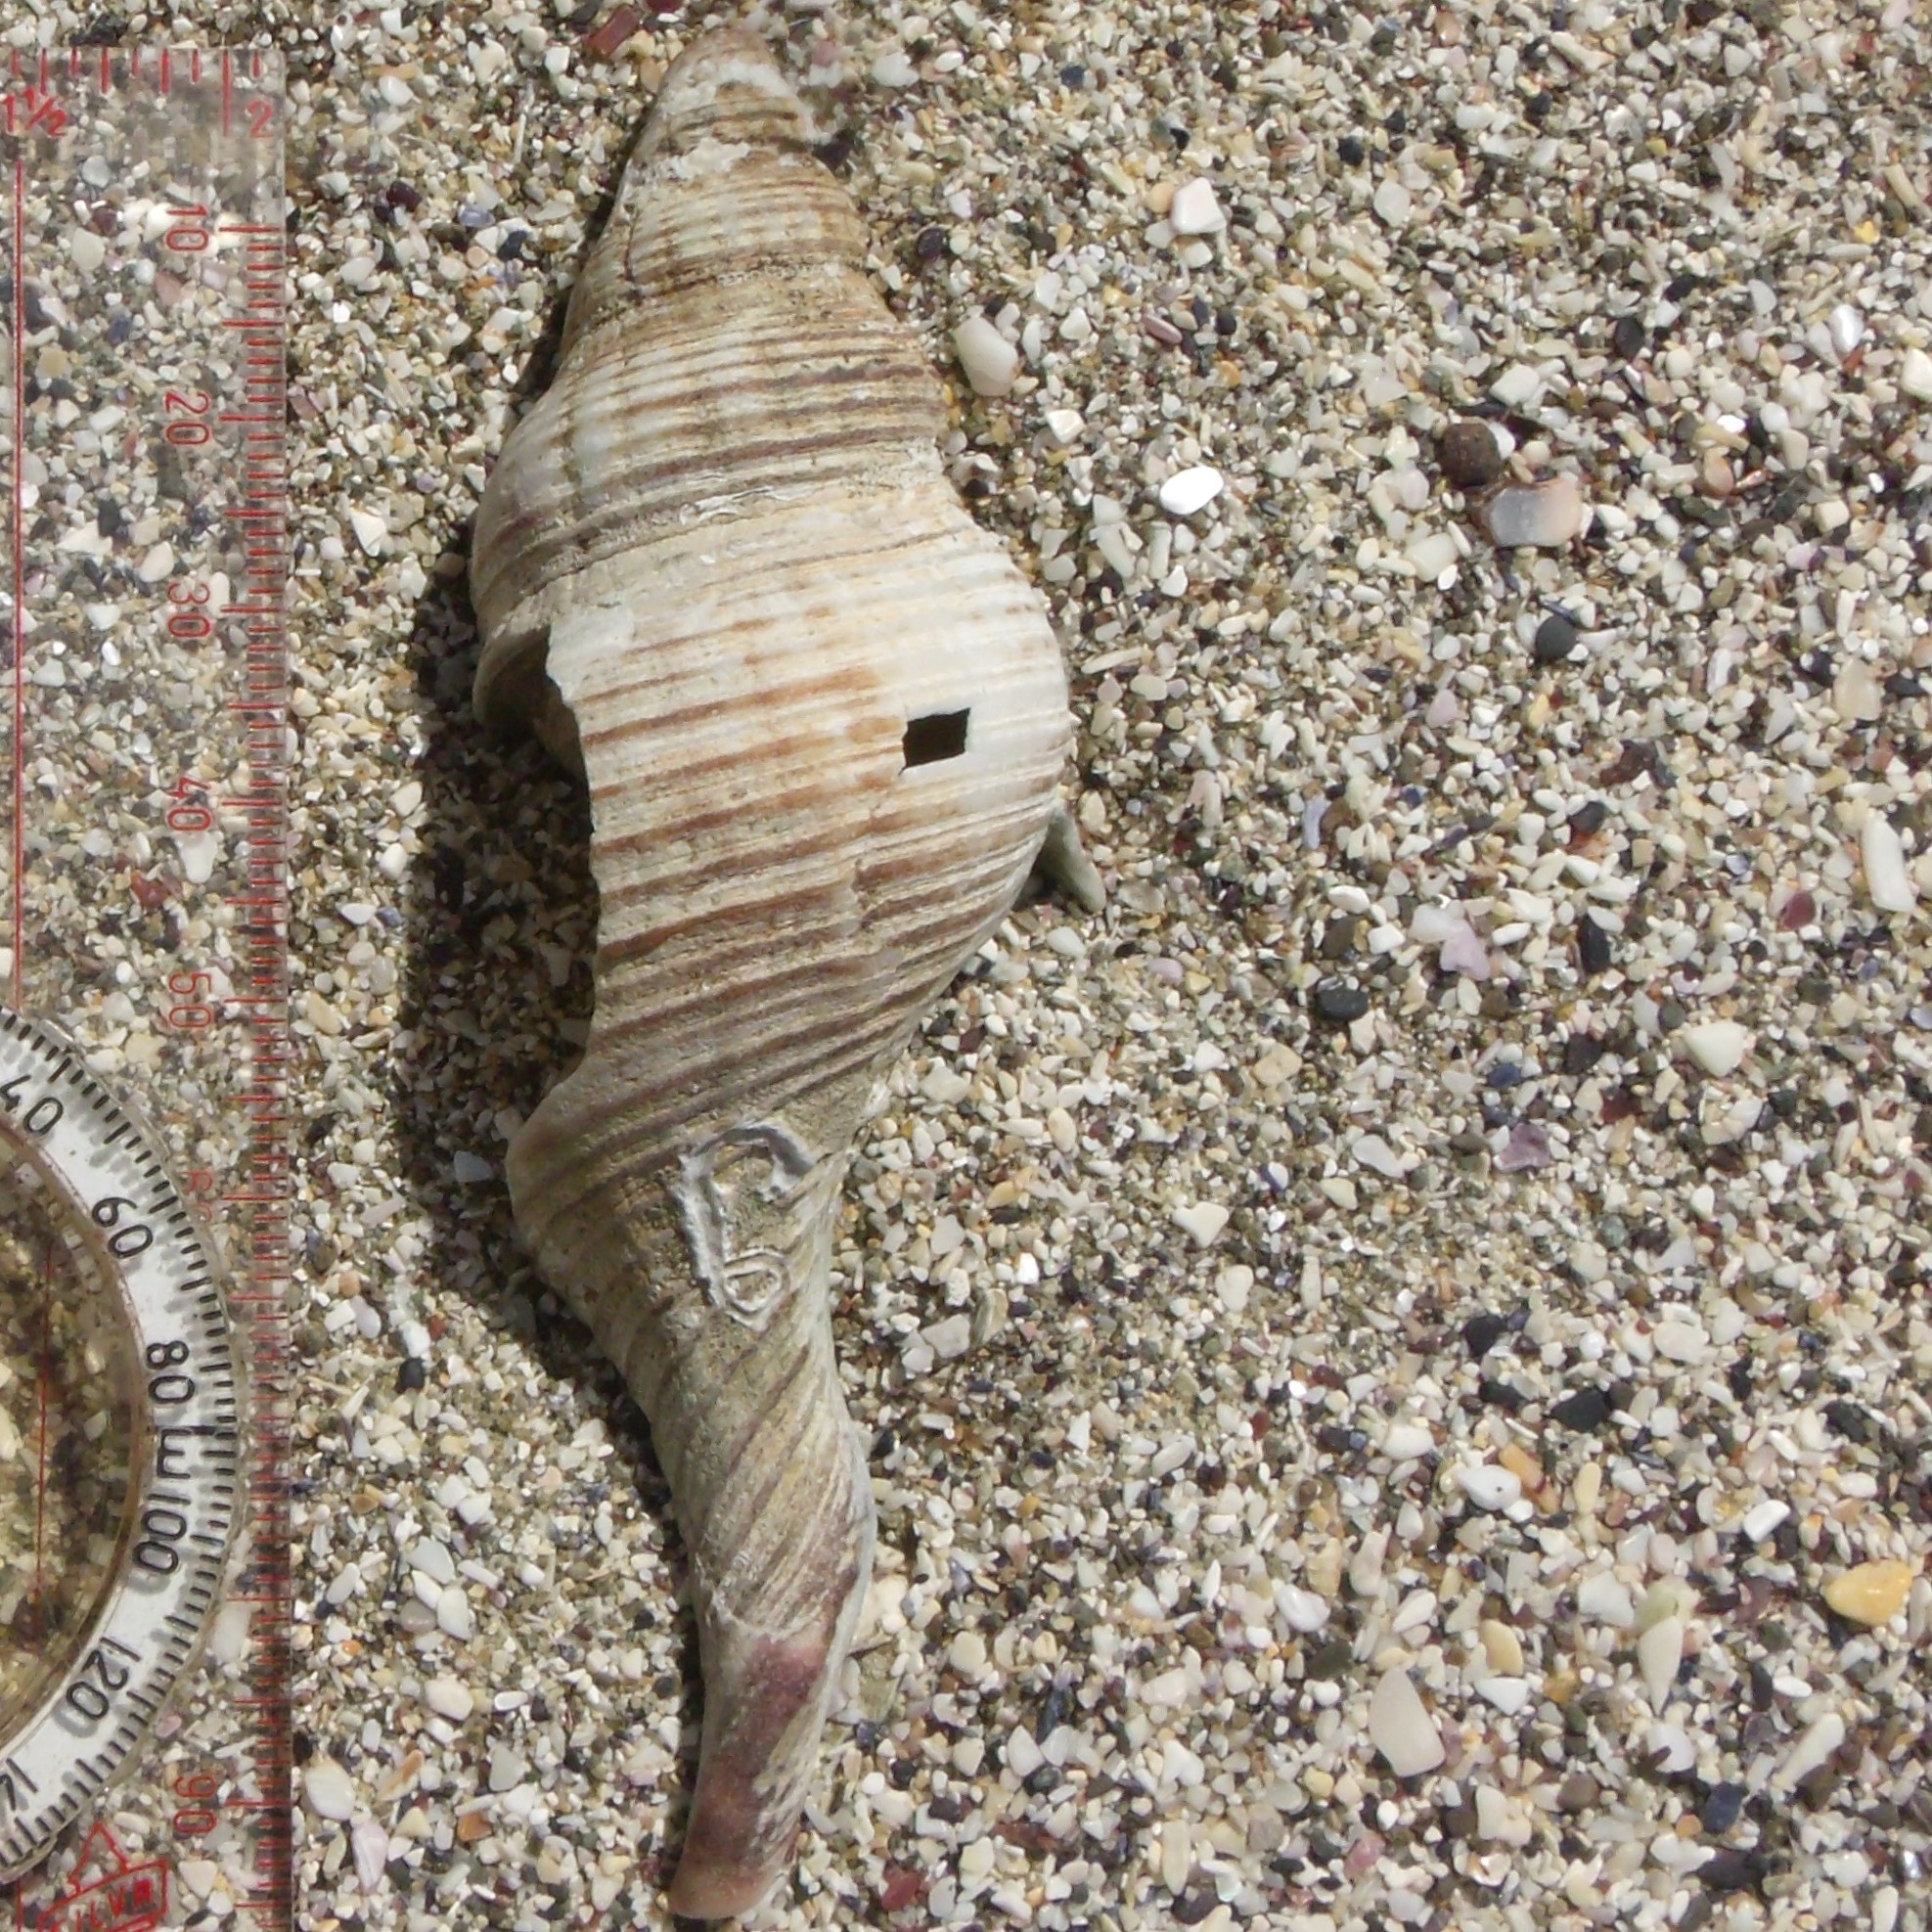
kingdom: Animalia
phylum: Mollusca
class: Gastropoda
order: Neogastropoda
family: Austrosiphonidae
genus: Penion
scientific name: Penion sulcatus
